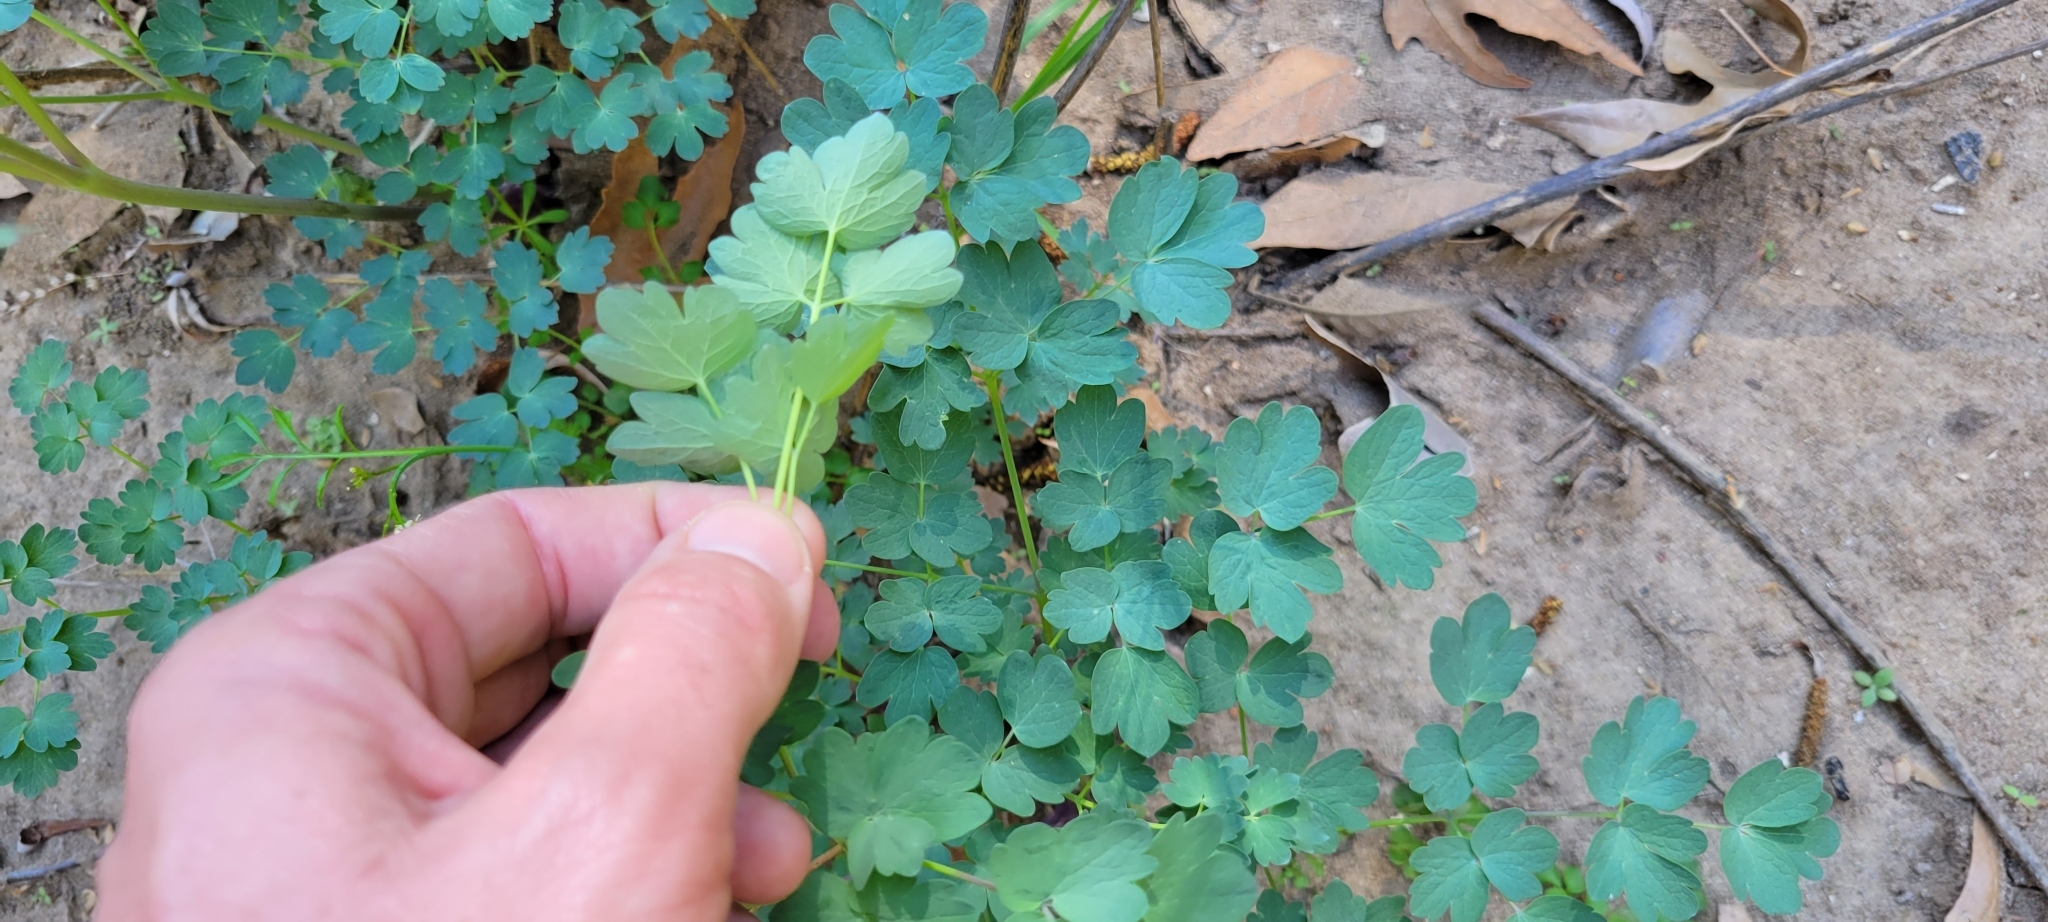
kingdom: Plantae
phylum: Tracheophyta
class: Magnoliopsida
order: Ranunculales
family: Ranunculaceae
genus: Thalictrum
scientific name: Thalictrum fendleri
